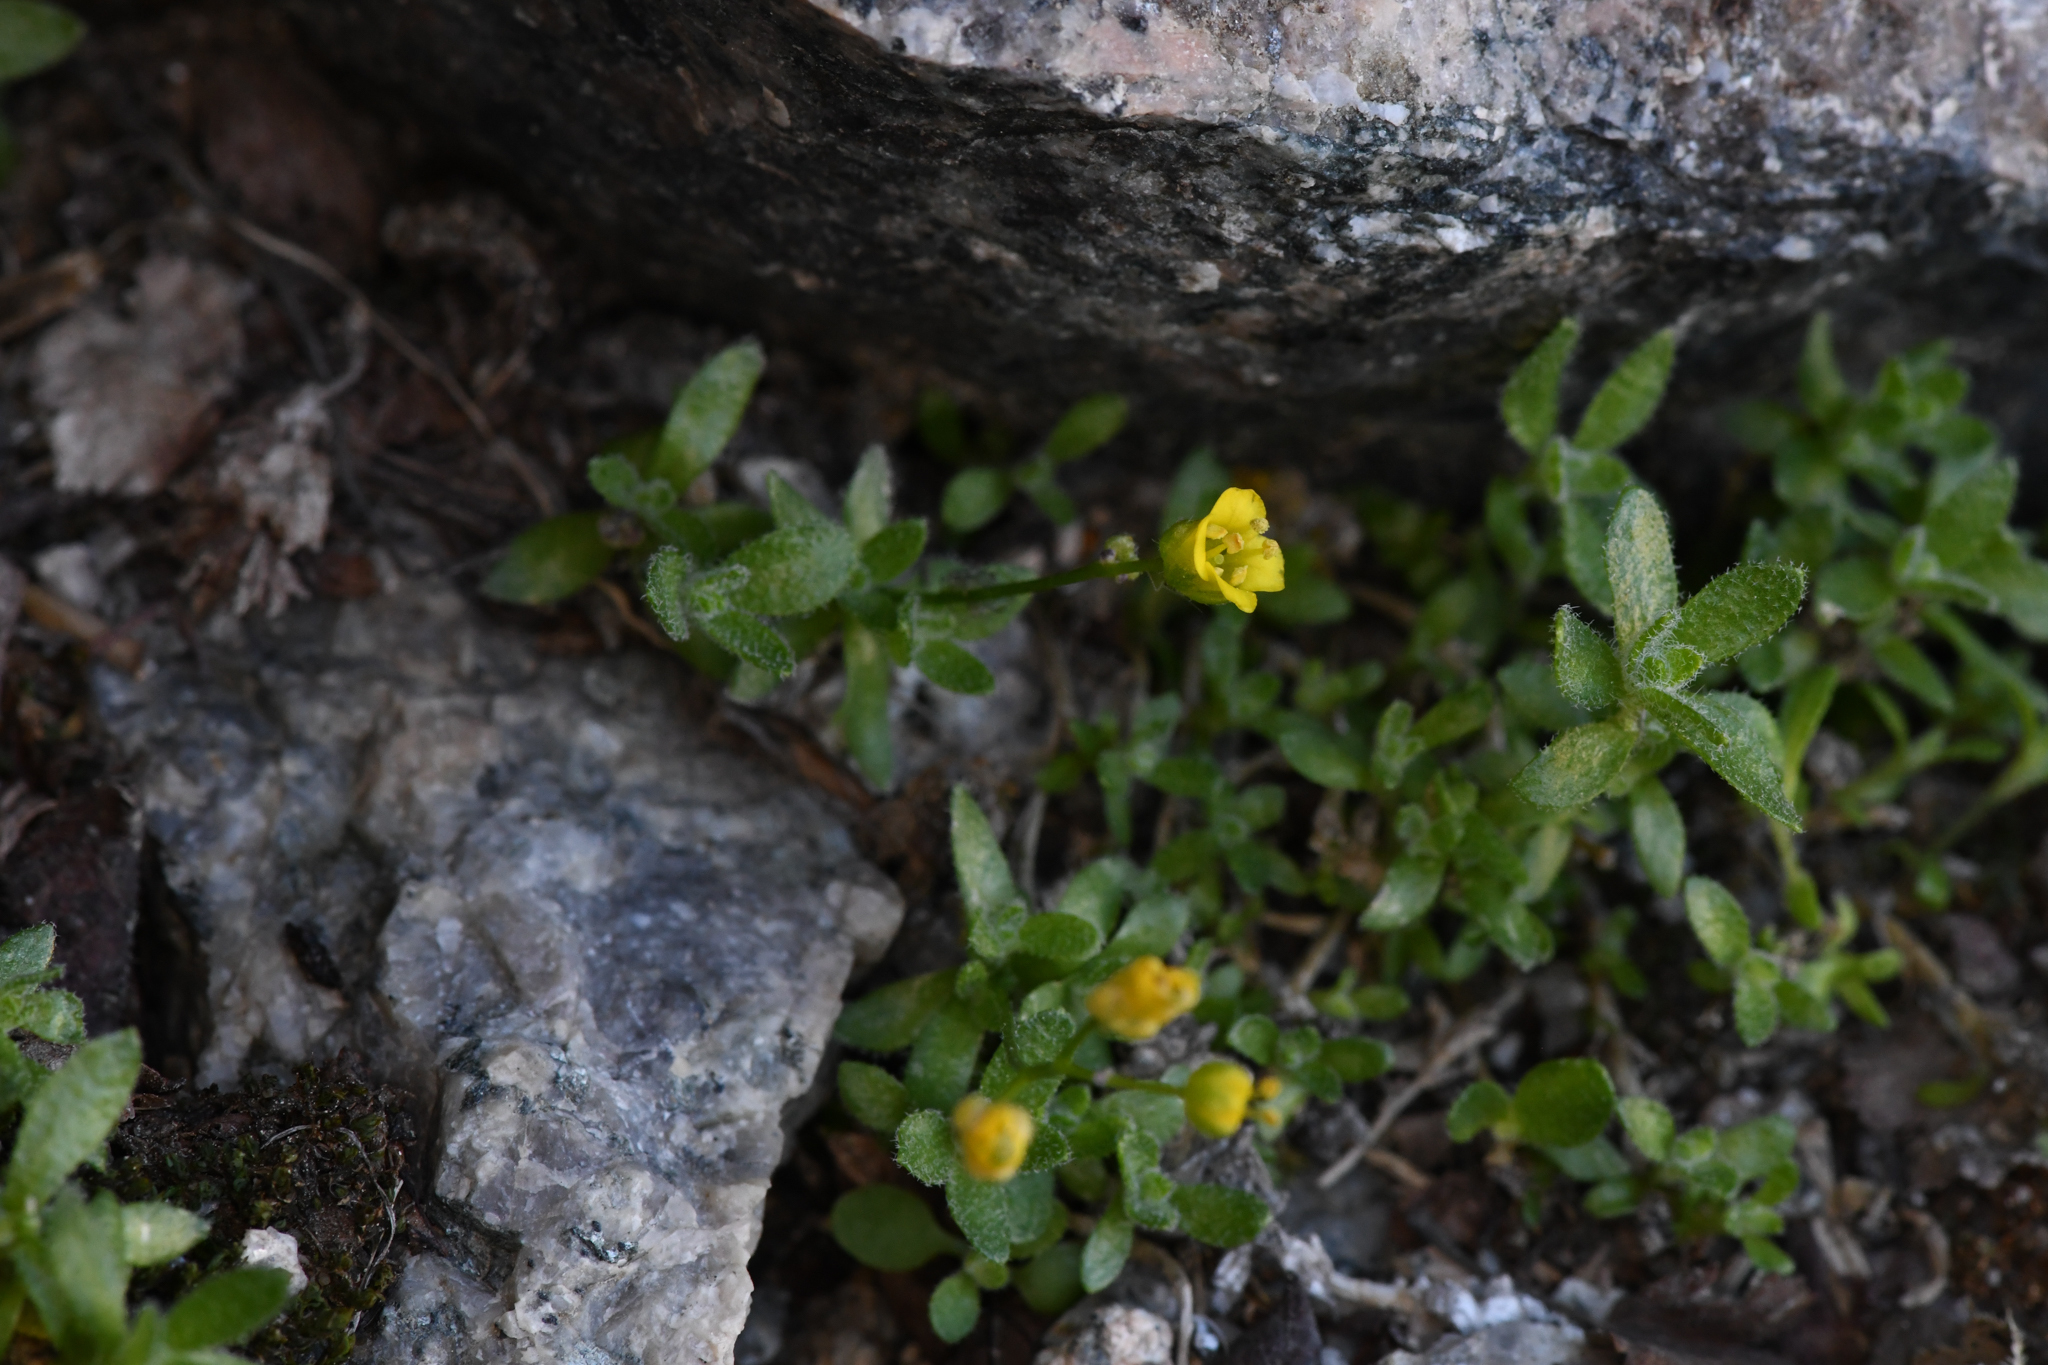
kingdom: Plantae
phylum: Tracheophyta
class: Magnoliopsida
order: Brassicales
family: Brassicaceae
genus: Draba
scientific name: Draba sharsmithii
